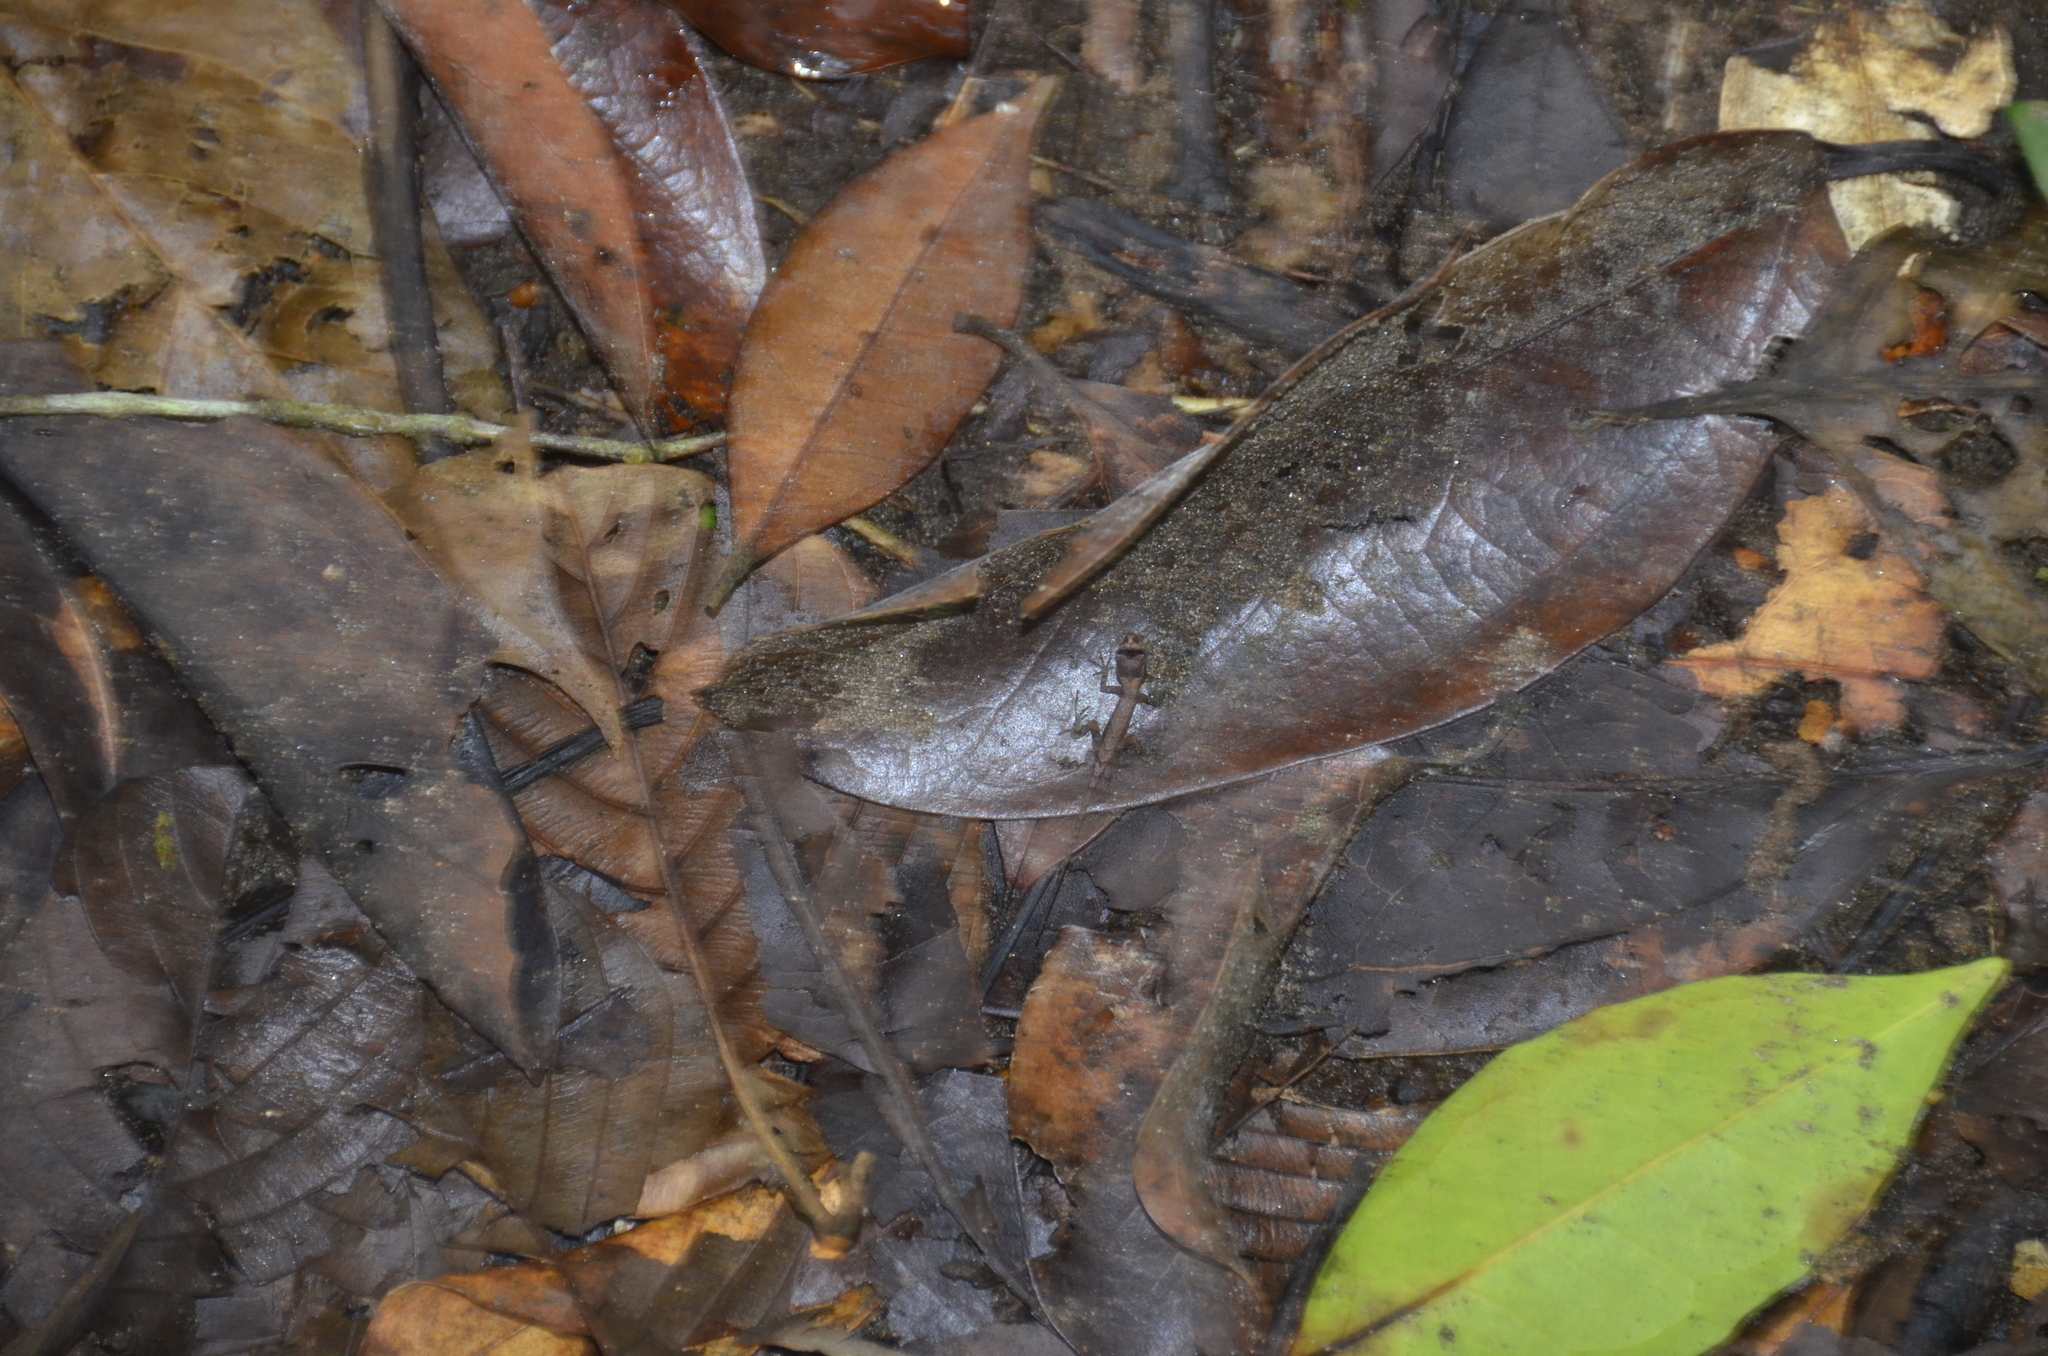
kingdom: Animalia
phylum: Chordata
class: Squamata
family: Dactyloidae
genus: Anolis
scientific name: Anolis humilis
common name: Humble anole
